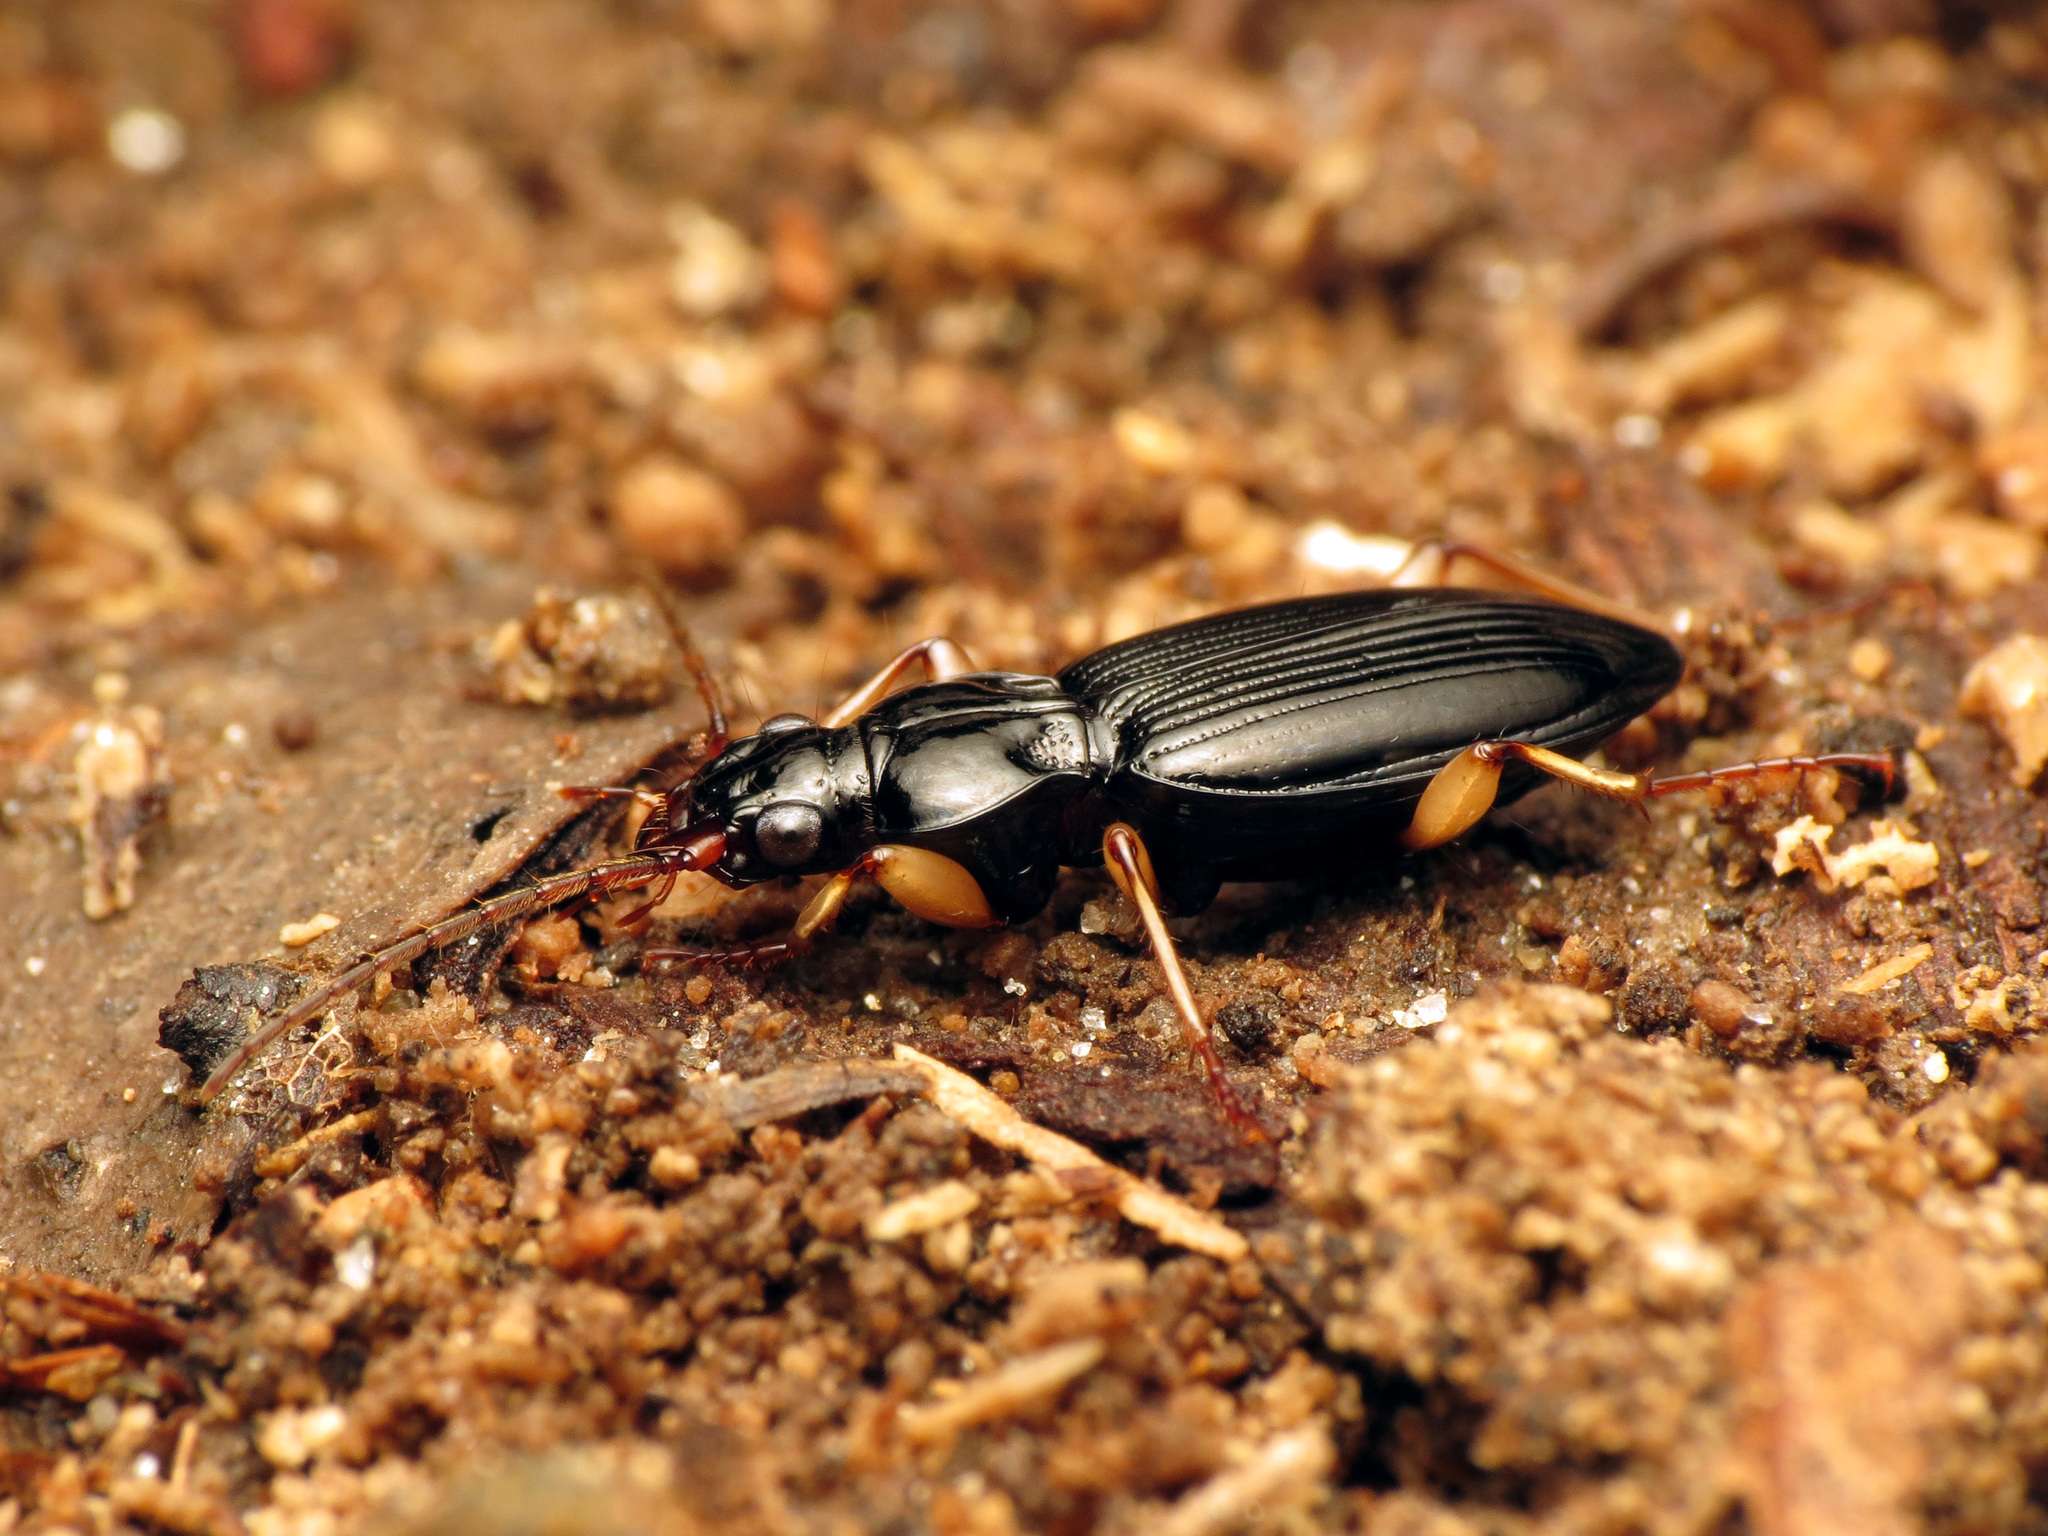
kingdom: Animalia
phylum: Arthropoda
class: Insecta
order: Coleoptera
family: Carabidae
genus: Patrobus
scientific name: Patrobus longicornis
